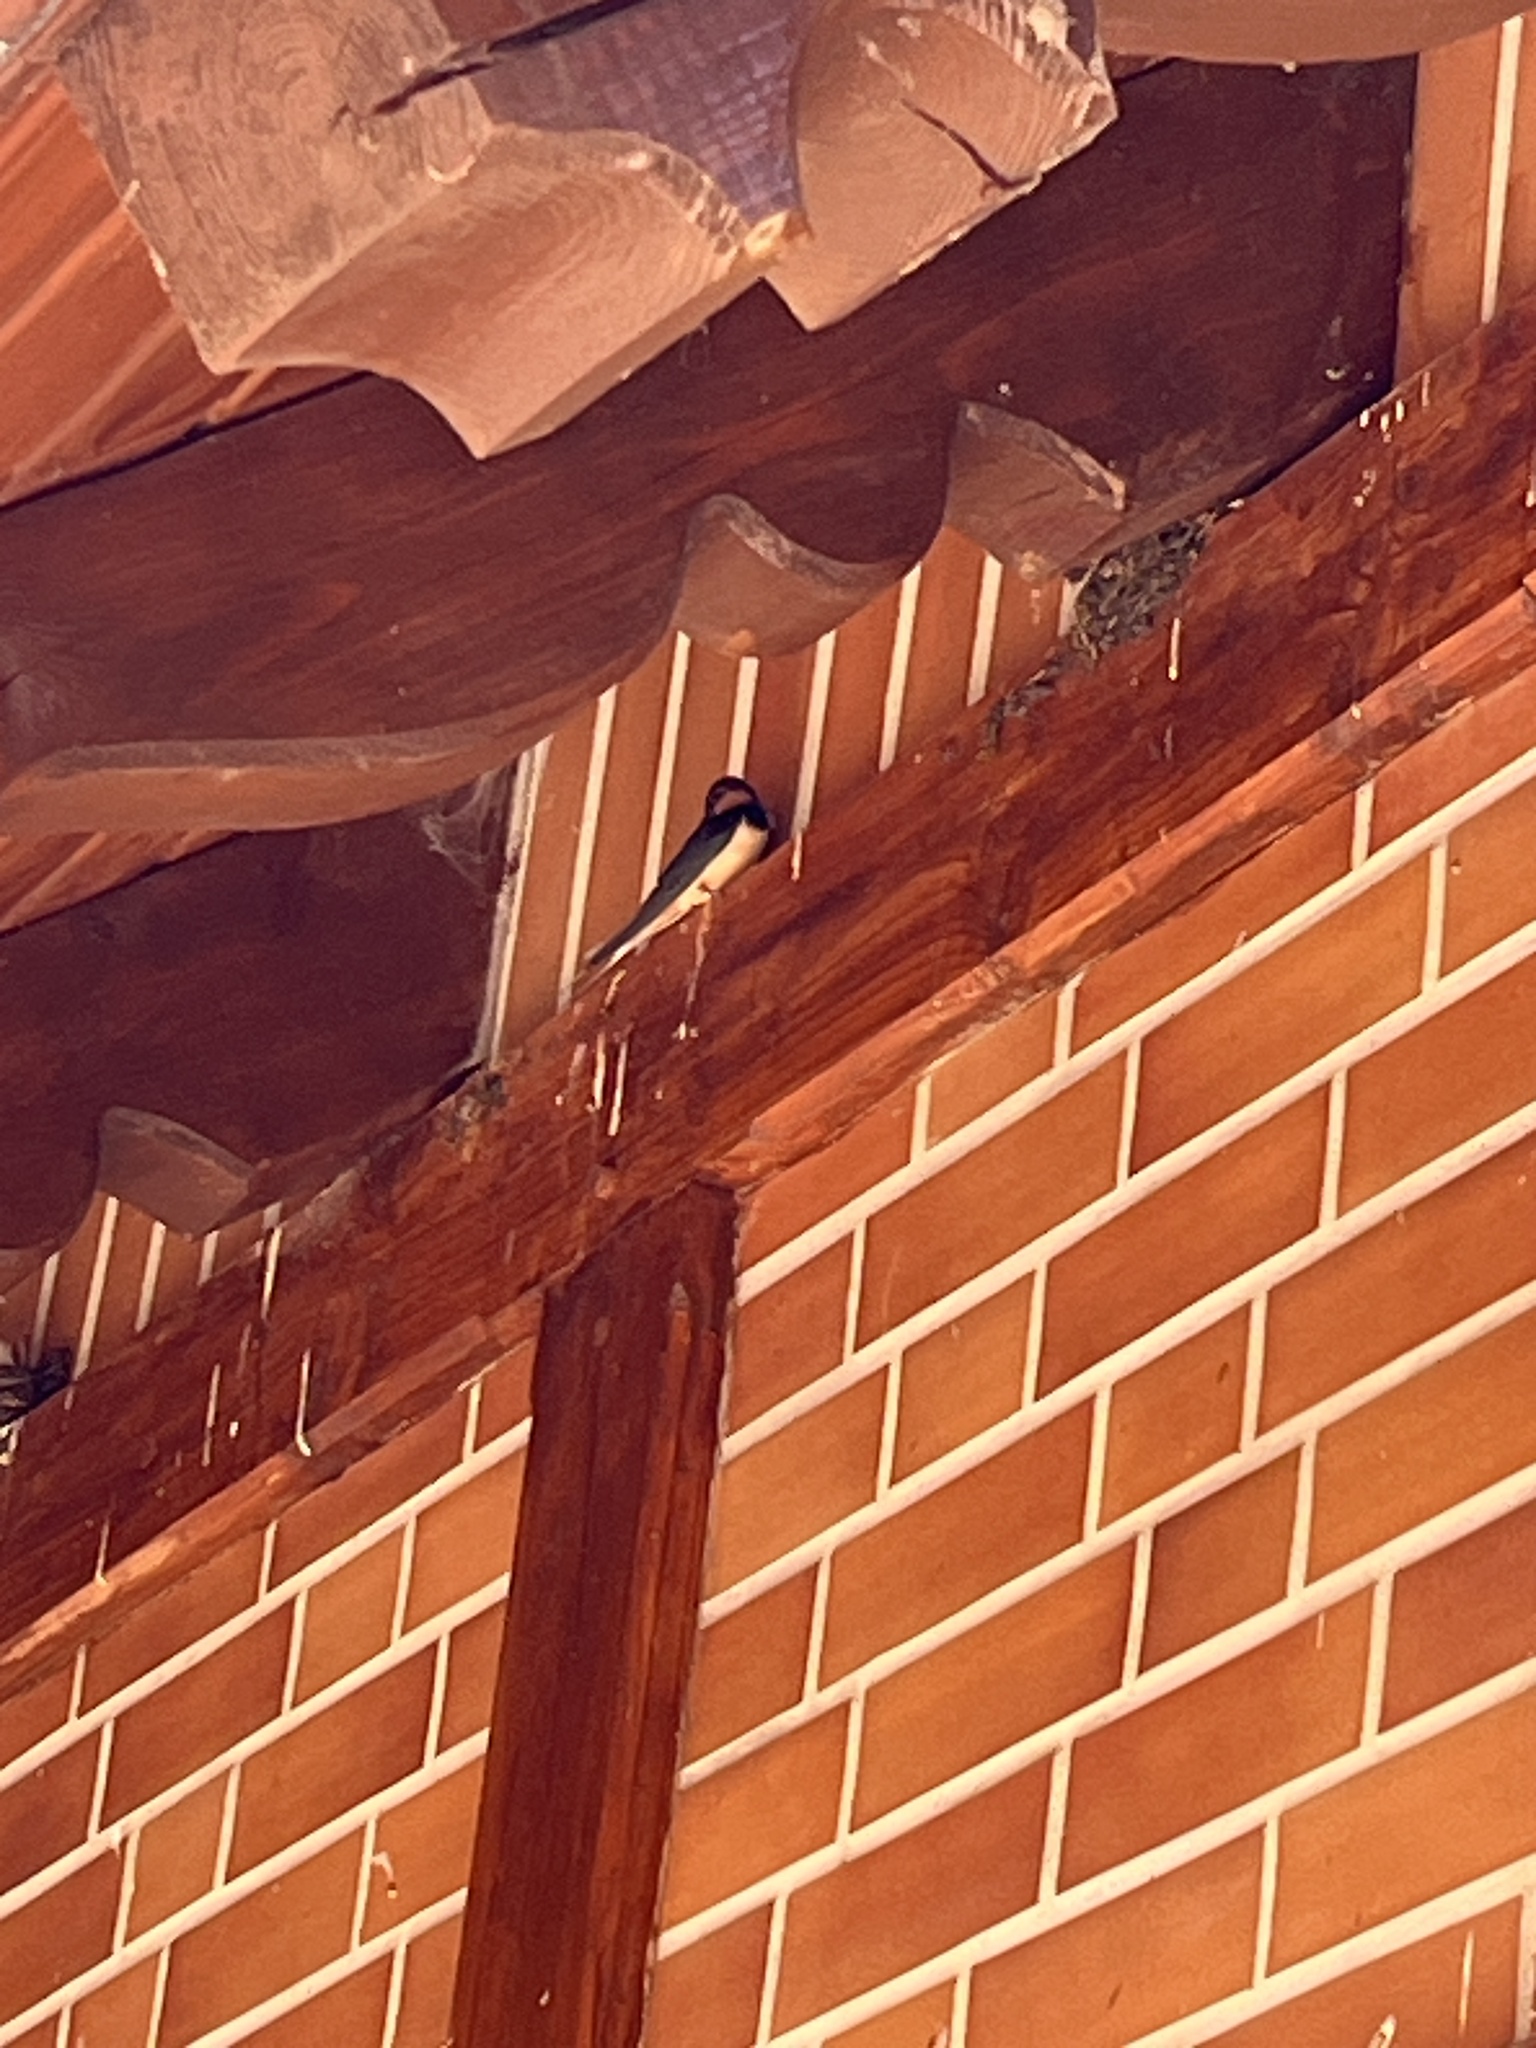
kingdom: Animalia
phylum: Chordata
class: Aves
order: Passeriformes
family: Hirundinidae
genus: Hirundo
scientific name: Hirundo rustica
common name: Barn swallow
